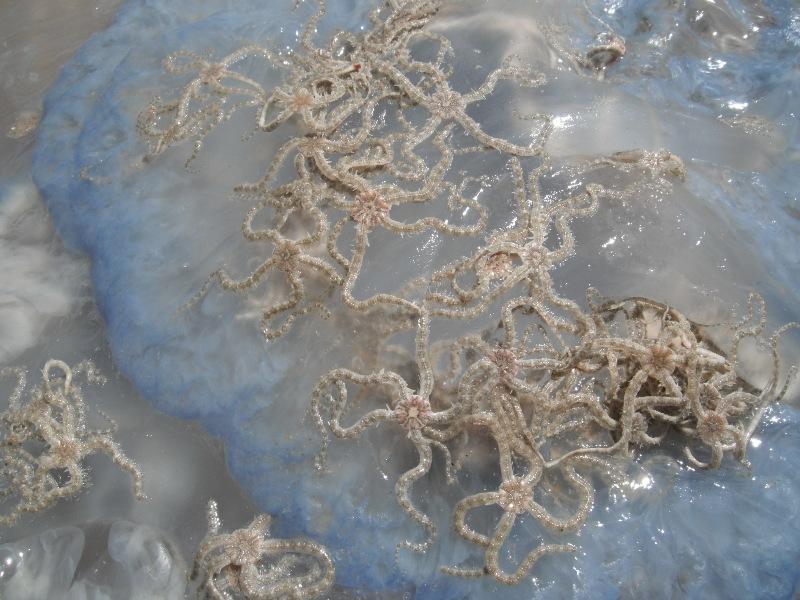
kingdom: Animalia
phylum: Echinodermata
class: Ophiuroidea
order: Amphilepidida
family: Ophiotrichidae
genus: Ophiocnemis
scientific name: Ophiocnemis marmorata
